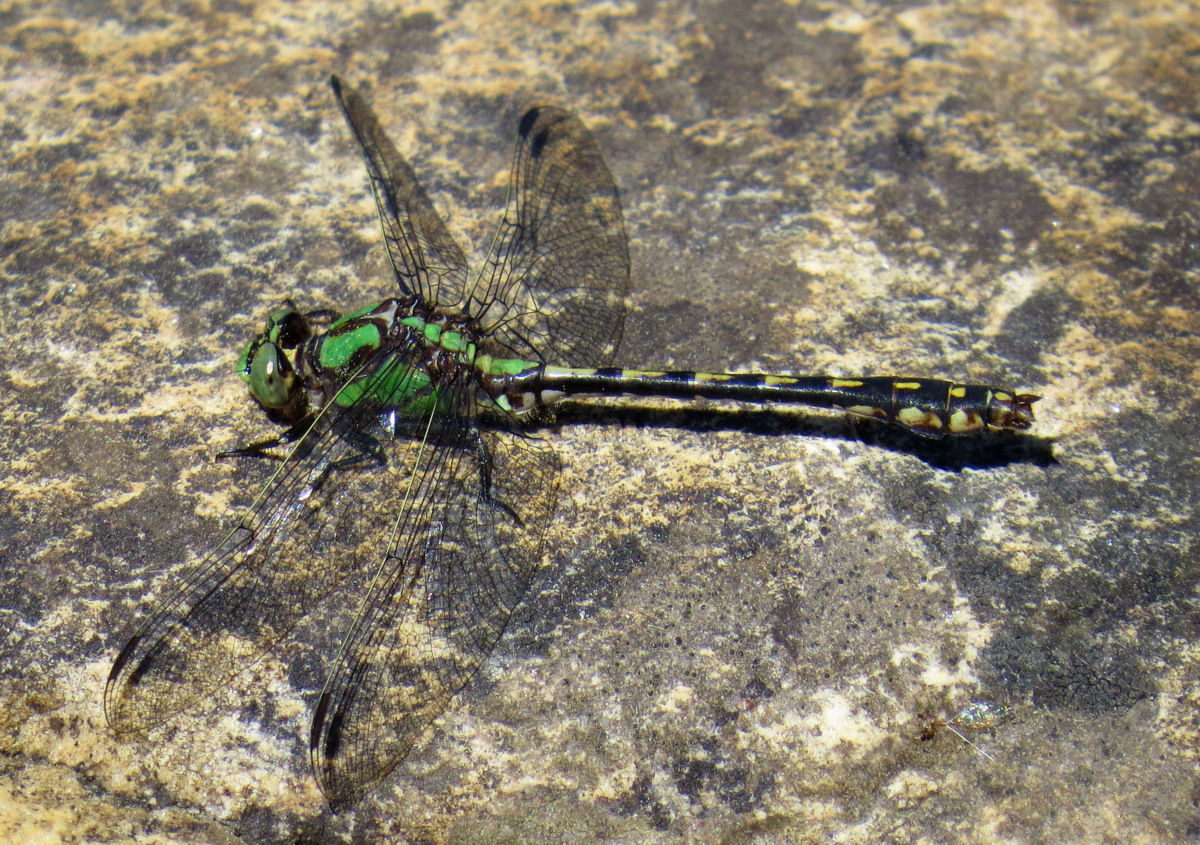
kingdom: Animalia
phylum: Arthropoda
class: Insecta
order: Odonata
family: Gomphidae
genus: Ophiogomphus
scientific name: Ophiogomphus carolus
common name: Riffle snaketail
